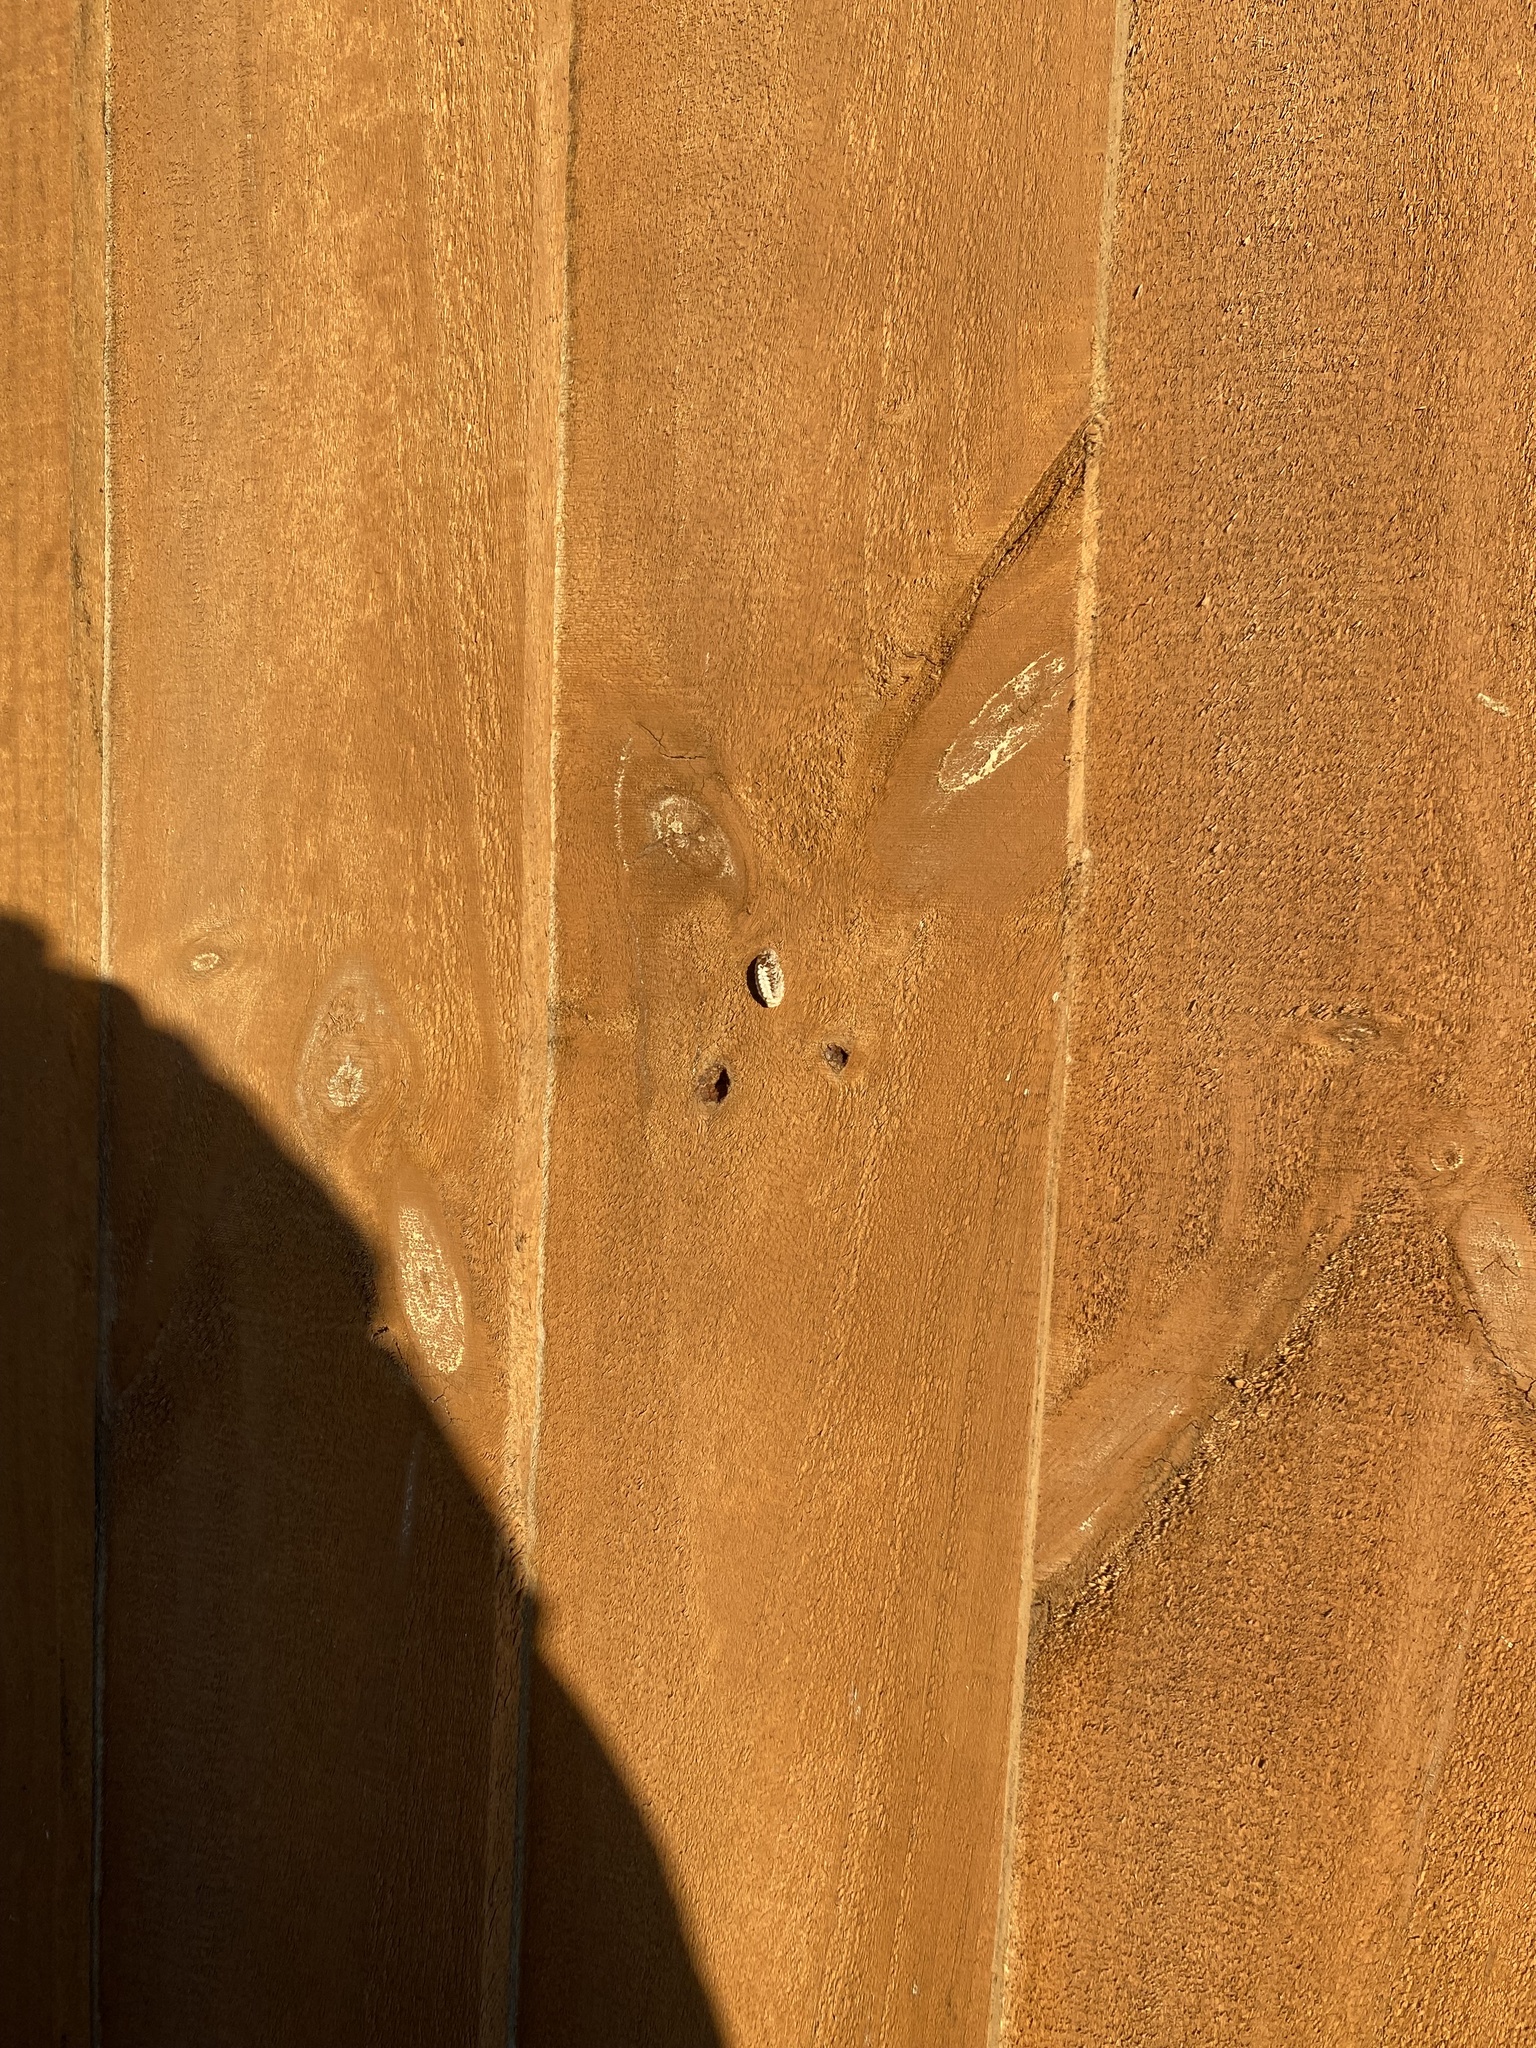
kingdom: Animalia
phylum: Arthropoda
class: Insecta
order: Mantodea
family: Mantidae
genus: Orthodera
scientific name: Orthodera novaezealandiae
